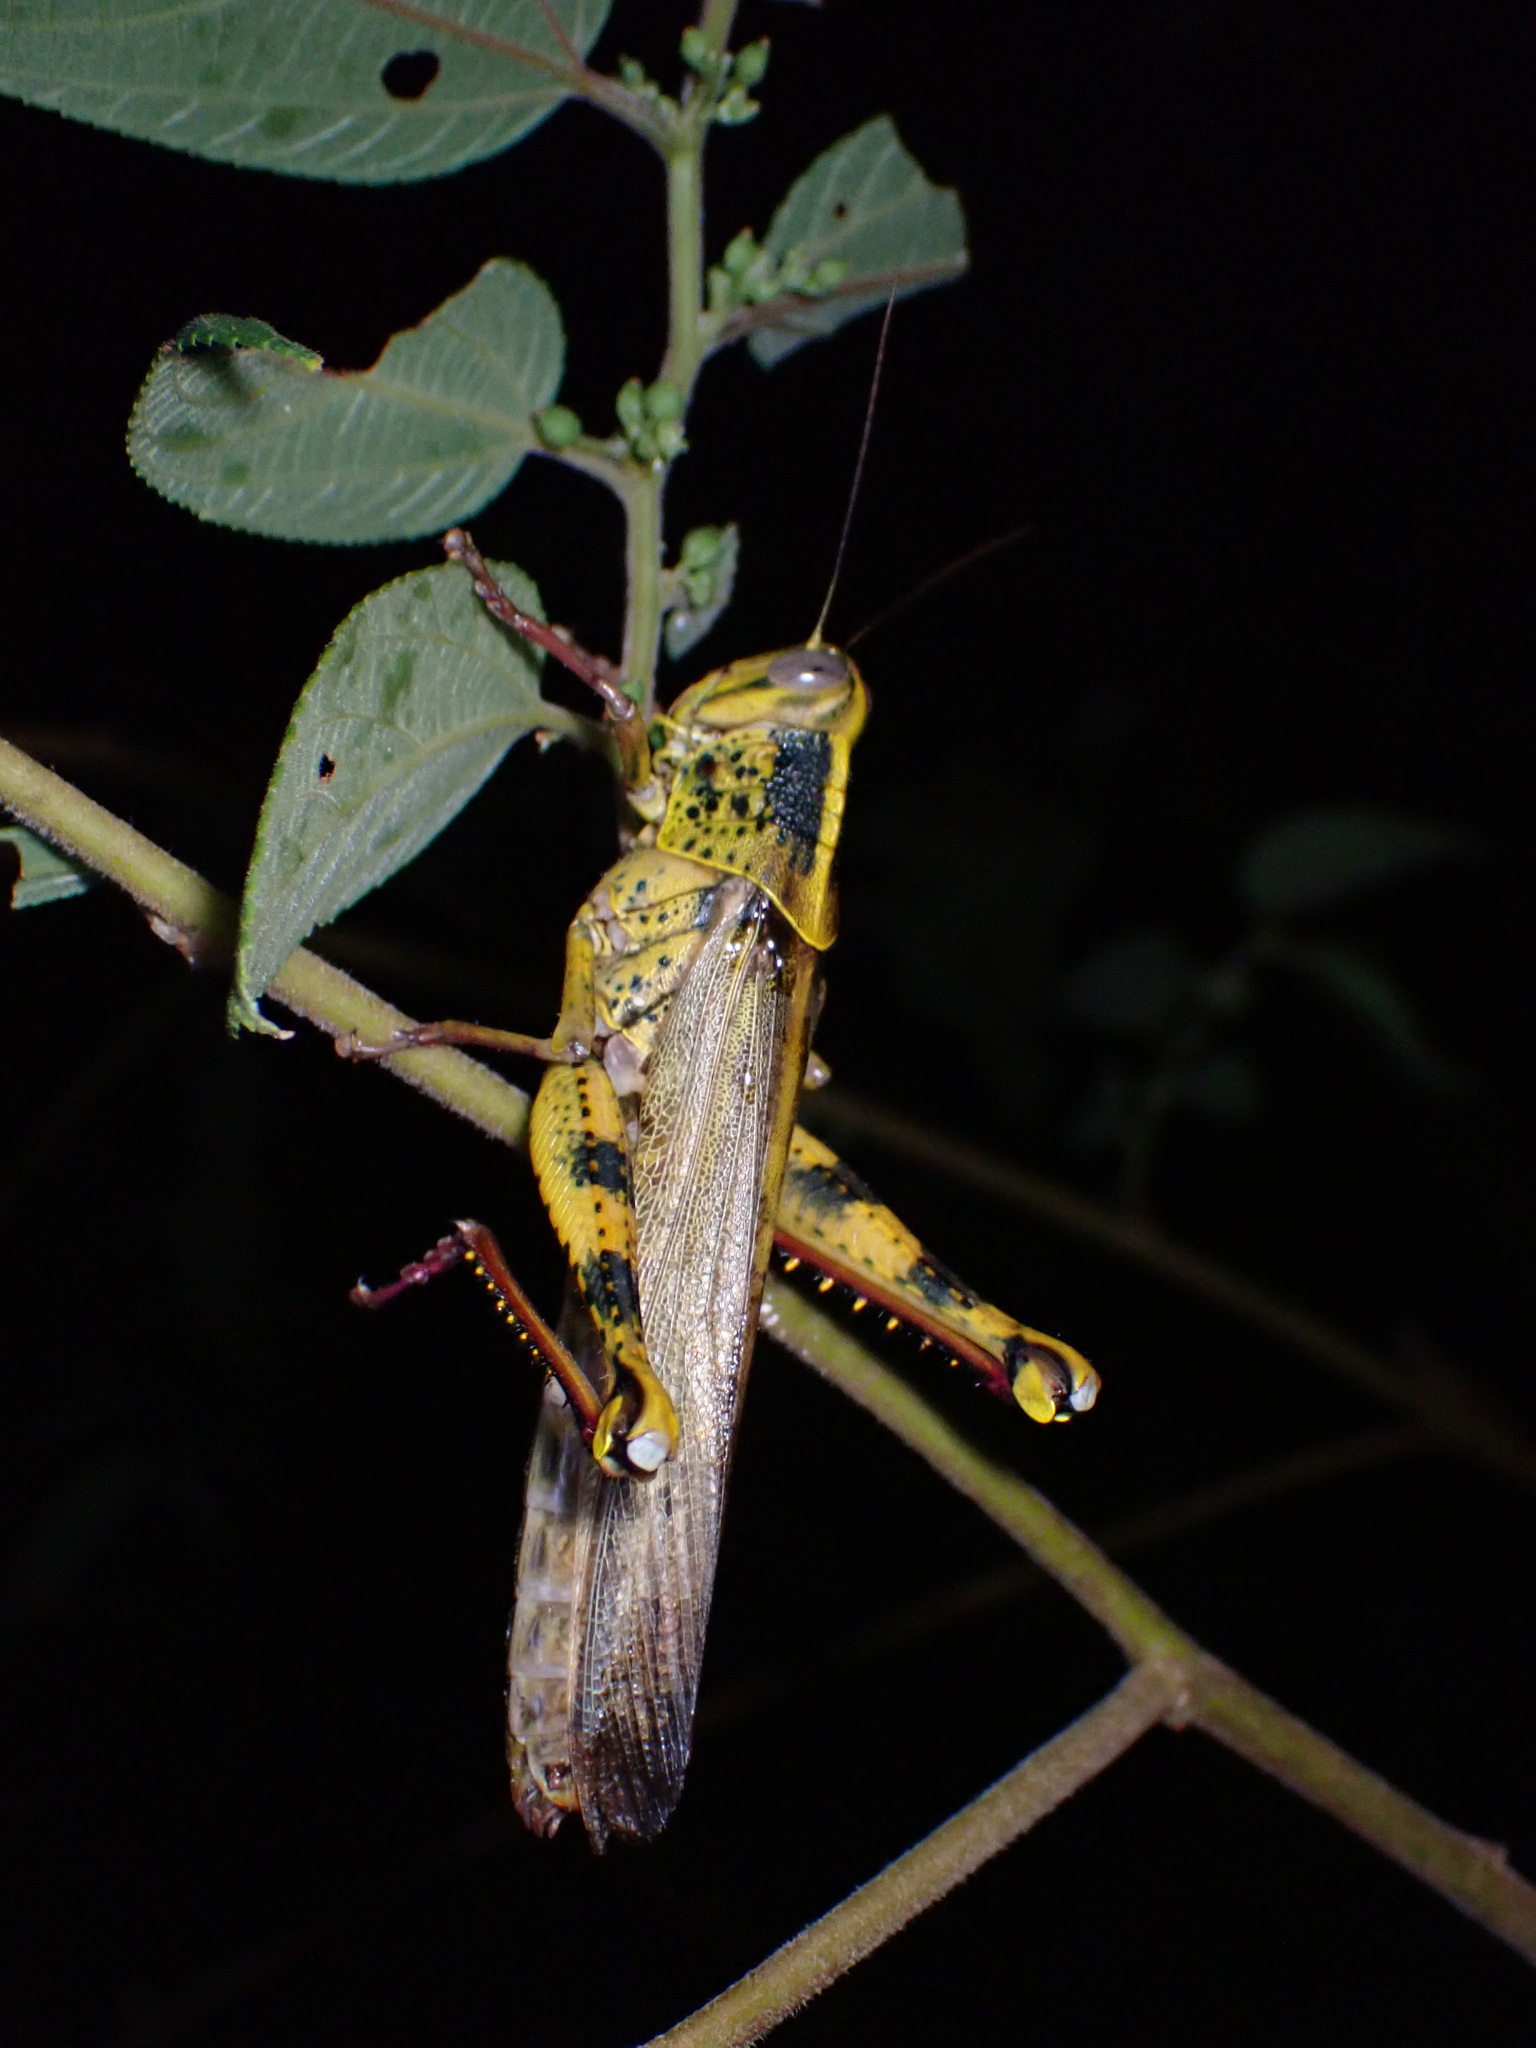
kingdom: Animalia
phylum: Arthropoda
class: Insecta
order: Orthoptera
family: Acrididae
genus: Valanga
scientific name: Valanga nigricornis
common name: Javanese bird grasshopper
